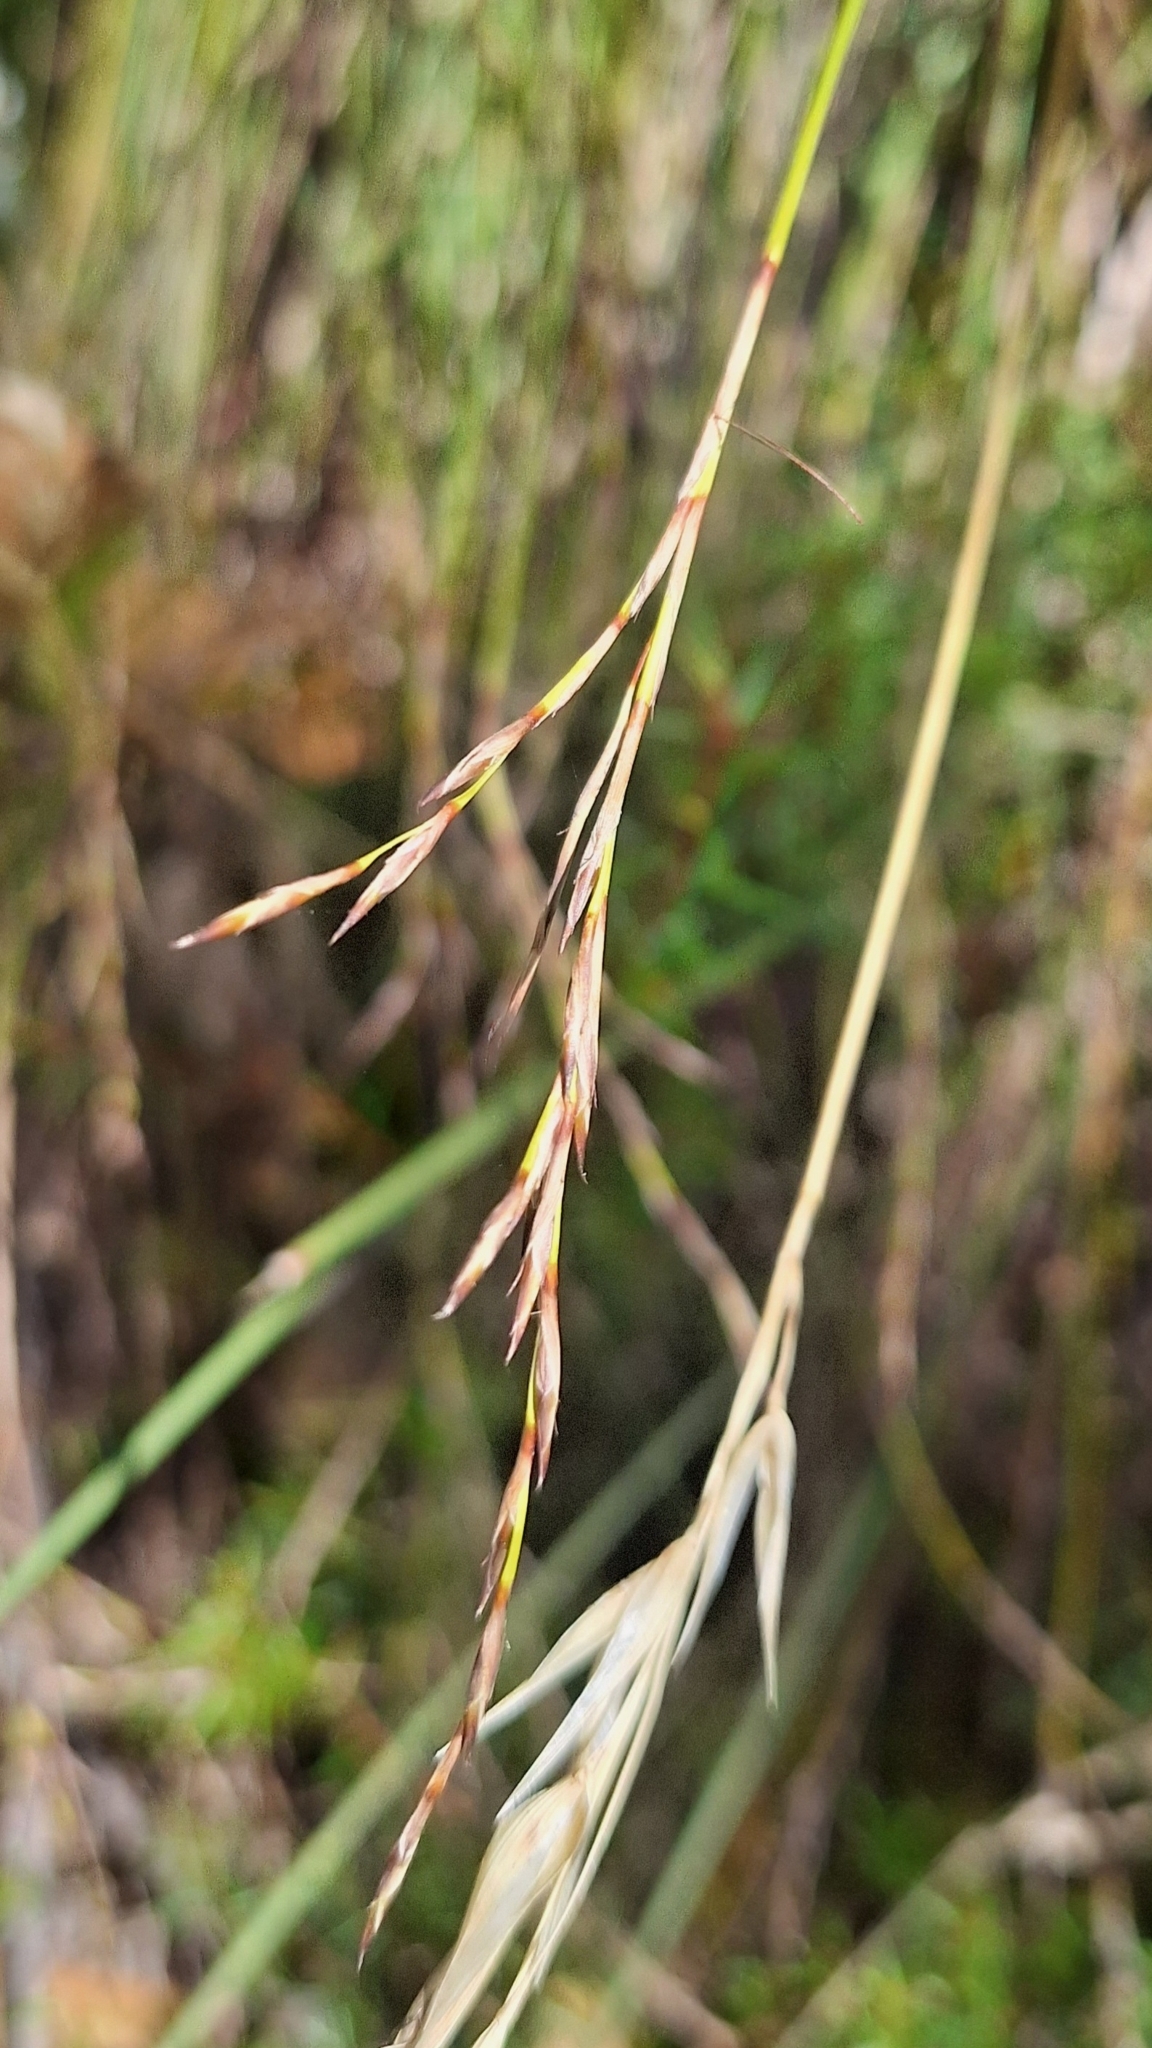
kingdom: Plantae
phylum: Tracheophyta
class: Liliopsida
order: Poales
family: Cyperaceae
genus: Lepidosperma
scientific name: Lepidosperma semiteres
